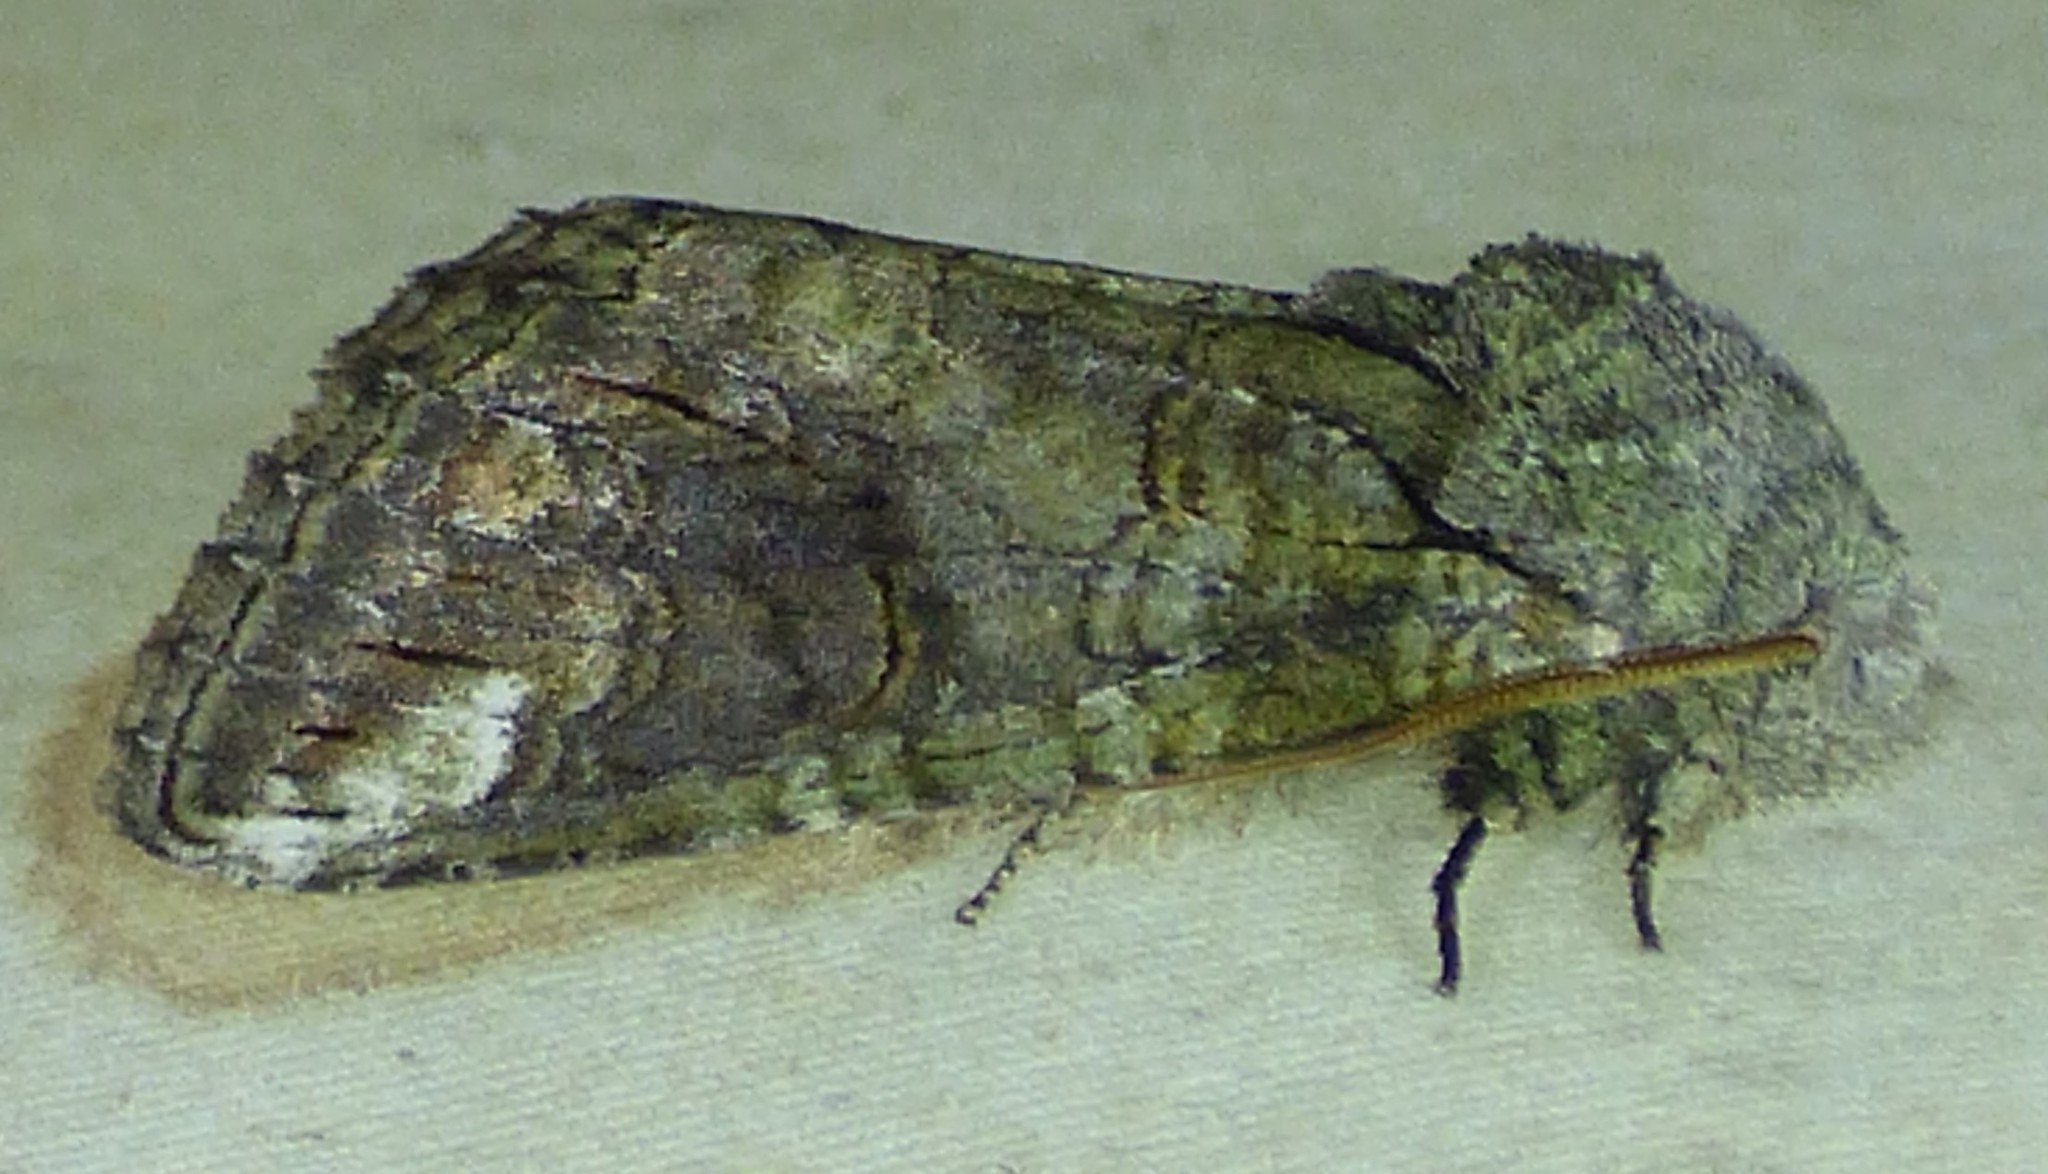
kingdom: Animalia
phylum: Arthropoda
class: Insecta
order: Lepidoptera
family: Notodontidae
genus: Heterocampa
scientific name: Heterocampa obliqua
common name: Oblique heterocampa
